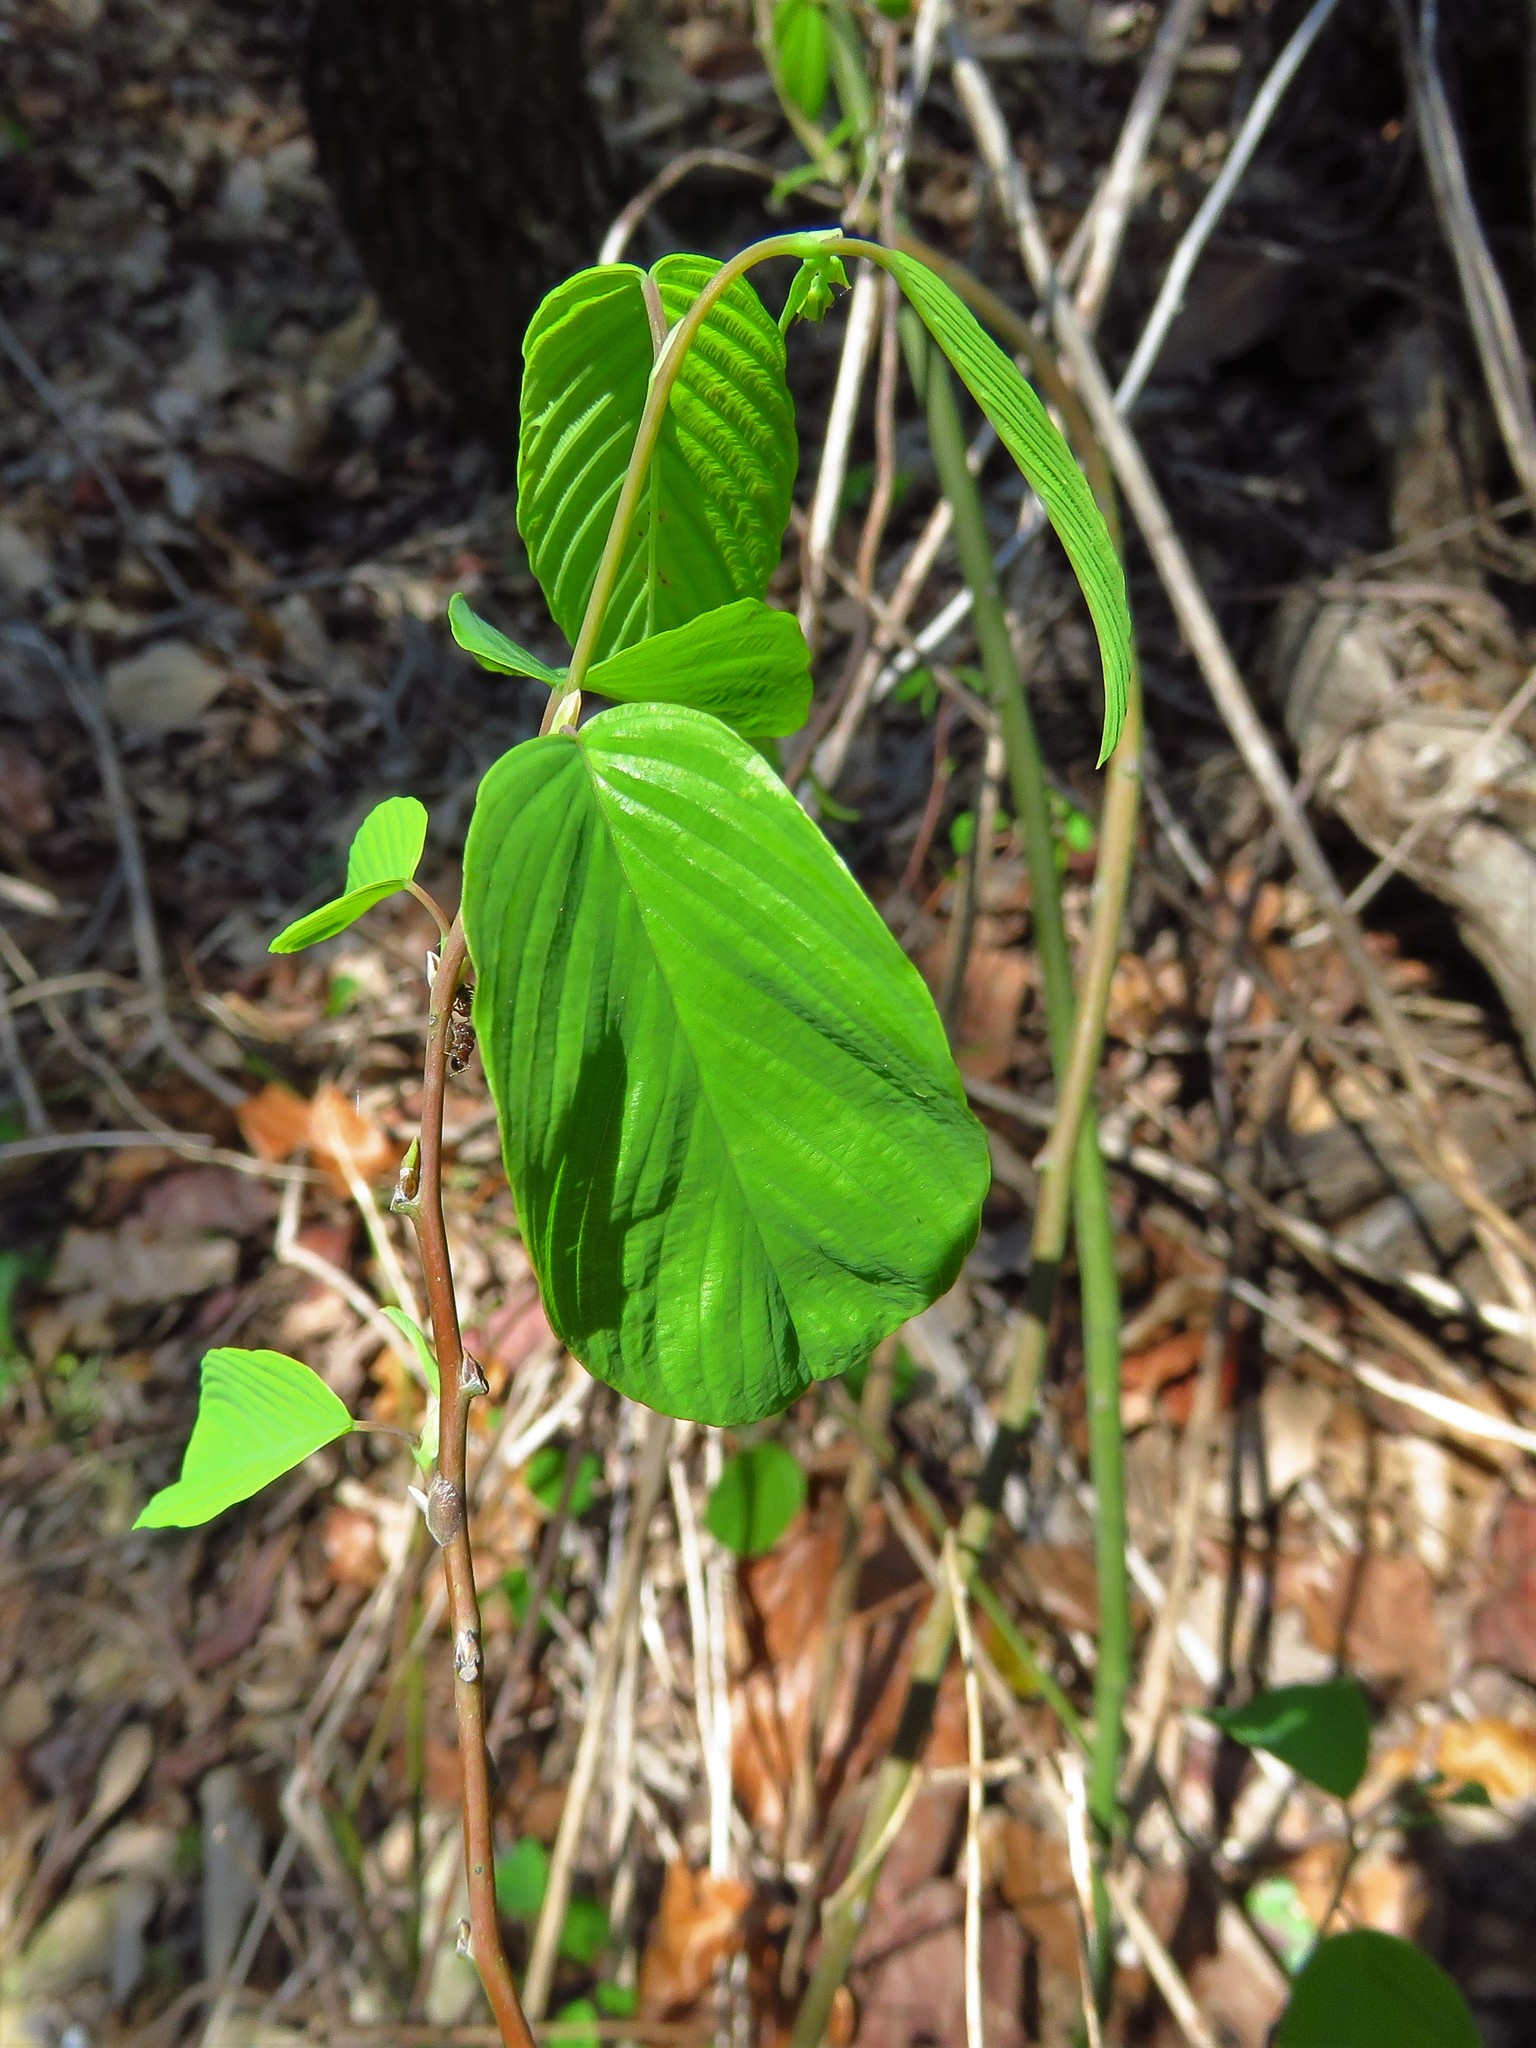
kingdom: Plantae
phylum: Tracheophyta
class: Magnoliopsida
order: Rosales
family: Rhamnaceae
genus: Berchemia
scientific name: Berchemia scandens
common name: Supplejack
